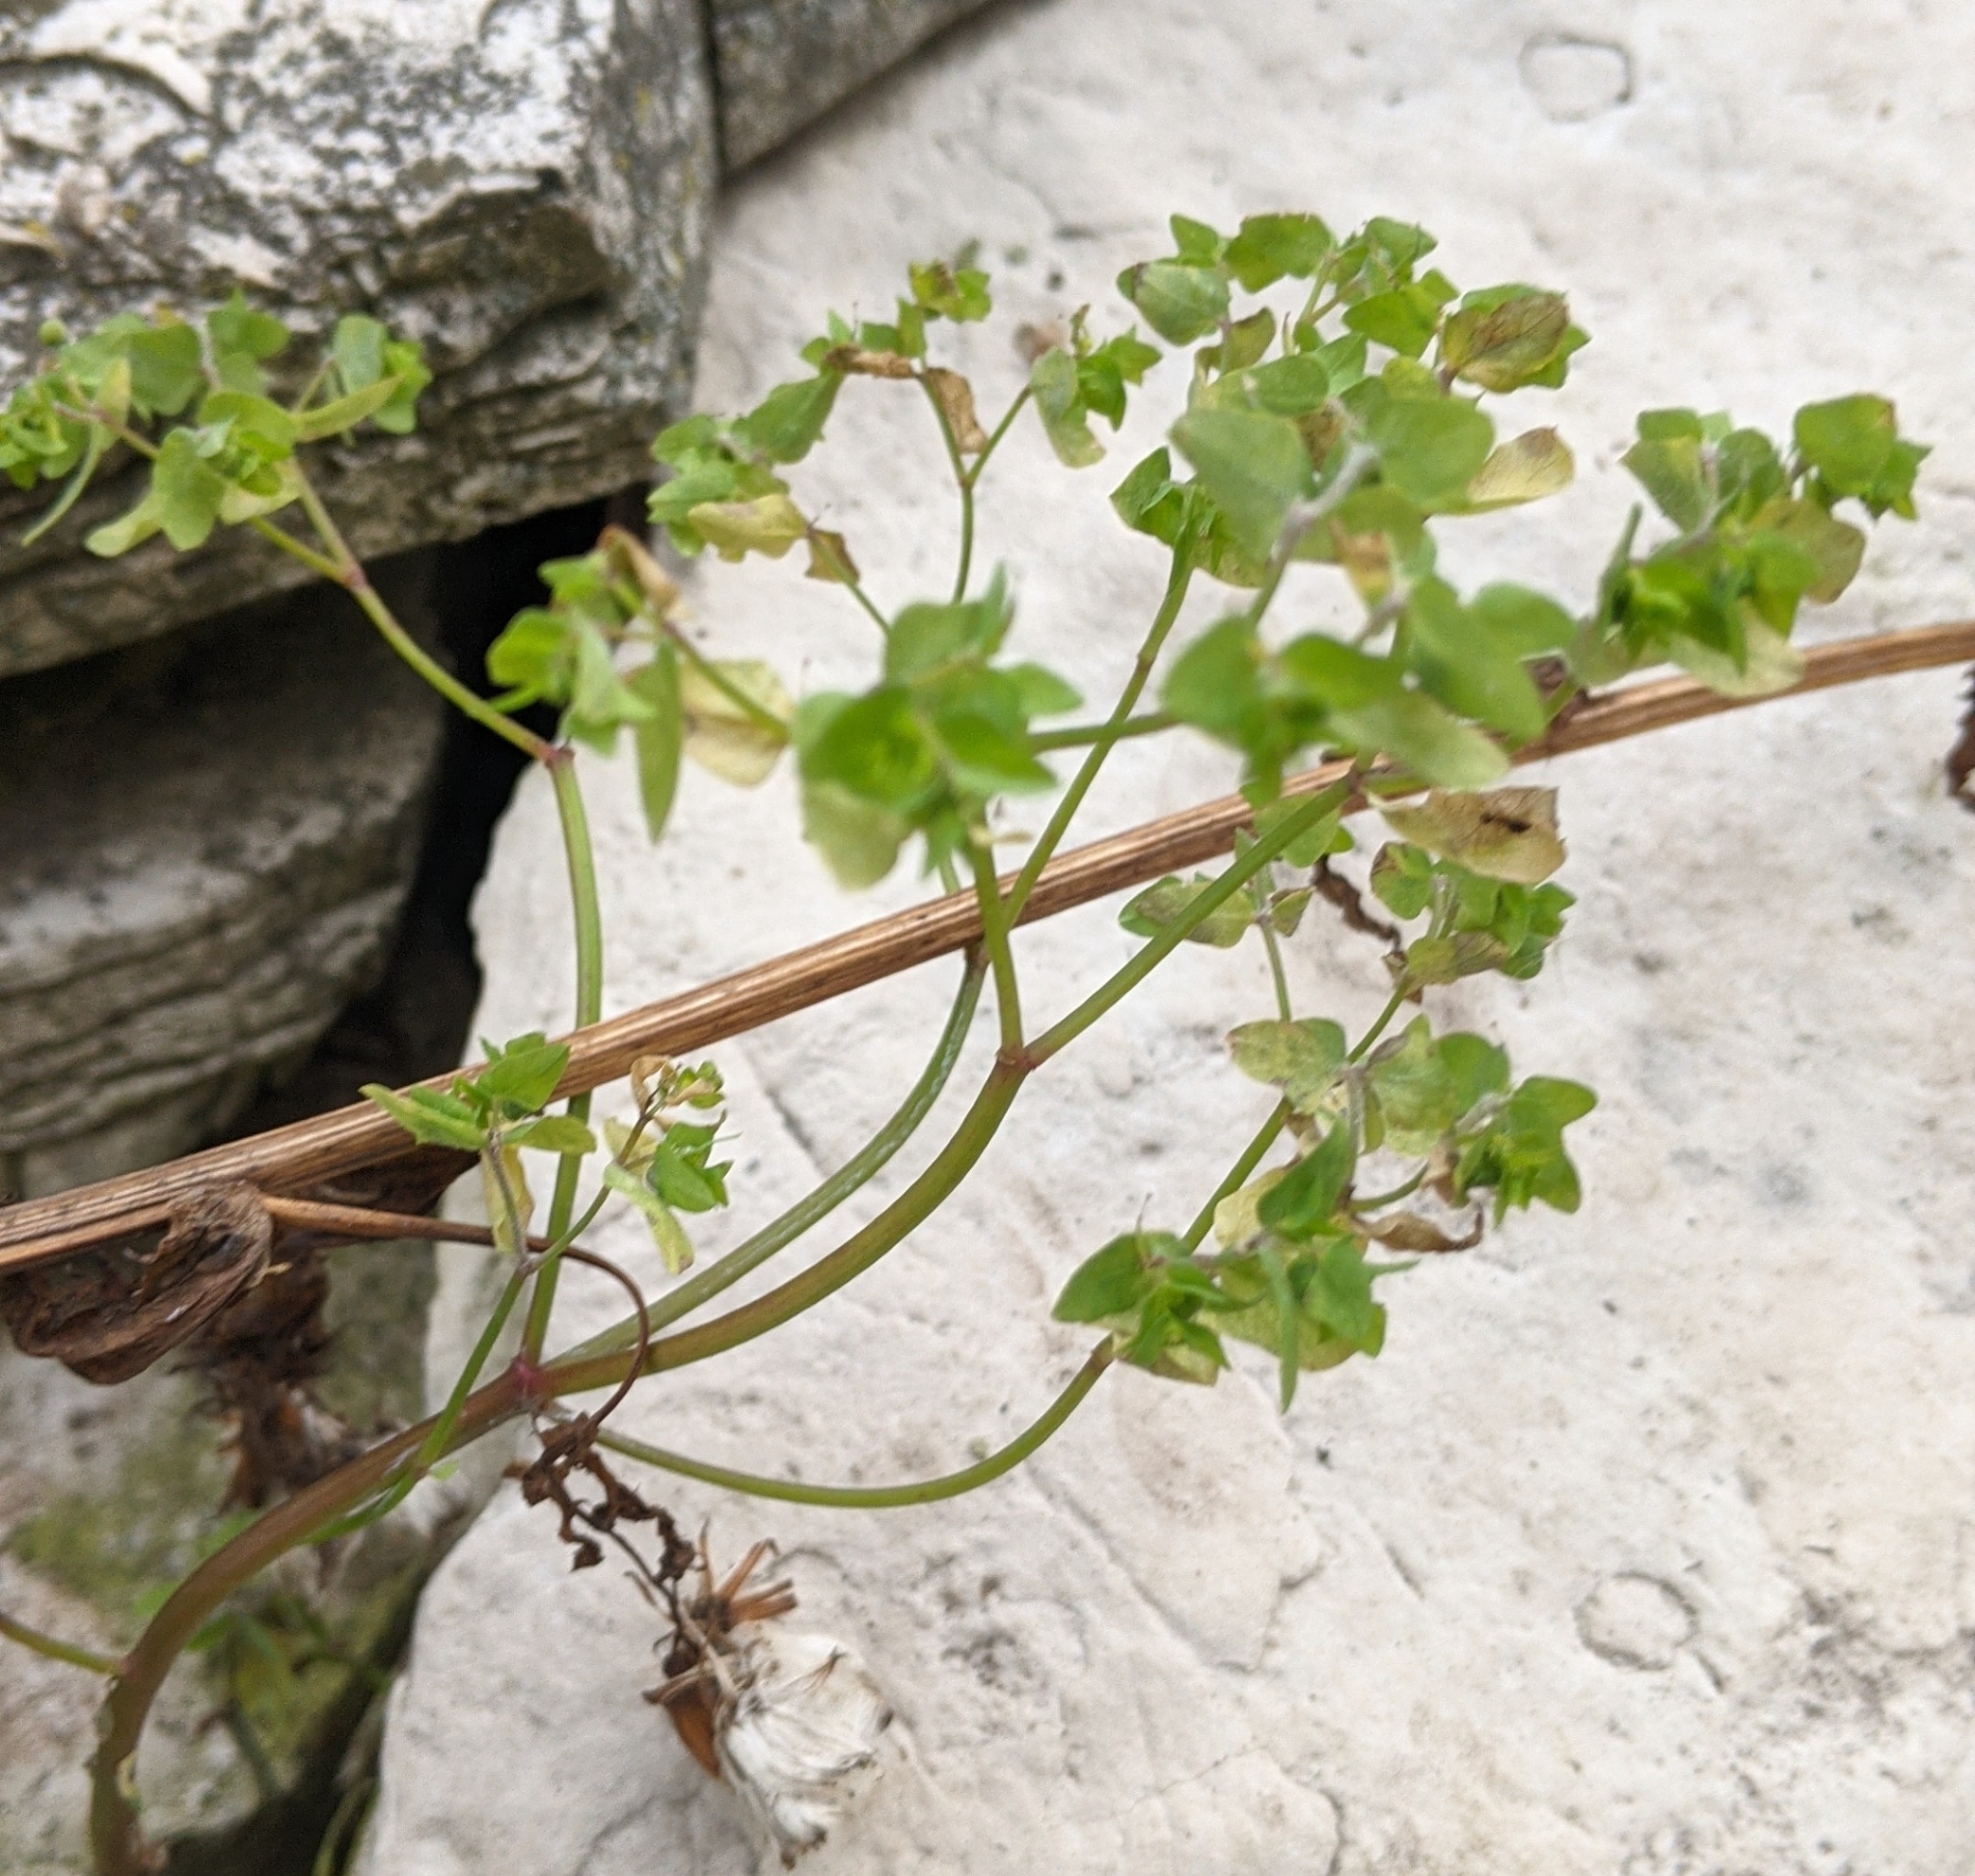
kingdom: Plantae
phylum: Tracheophyta
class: Magnoliopsida
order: Malpighiales
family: Euphorbiaceae
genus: Euphorbia
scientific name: Euphorbia peplus
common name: Petty spurge
